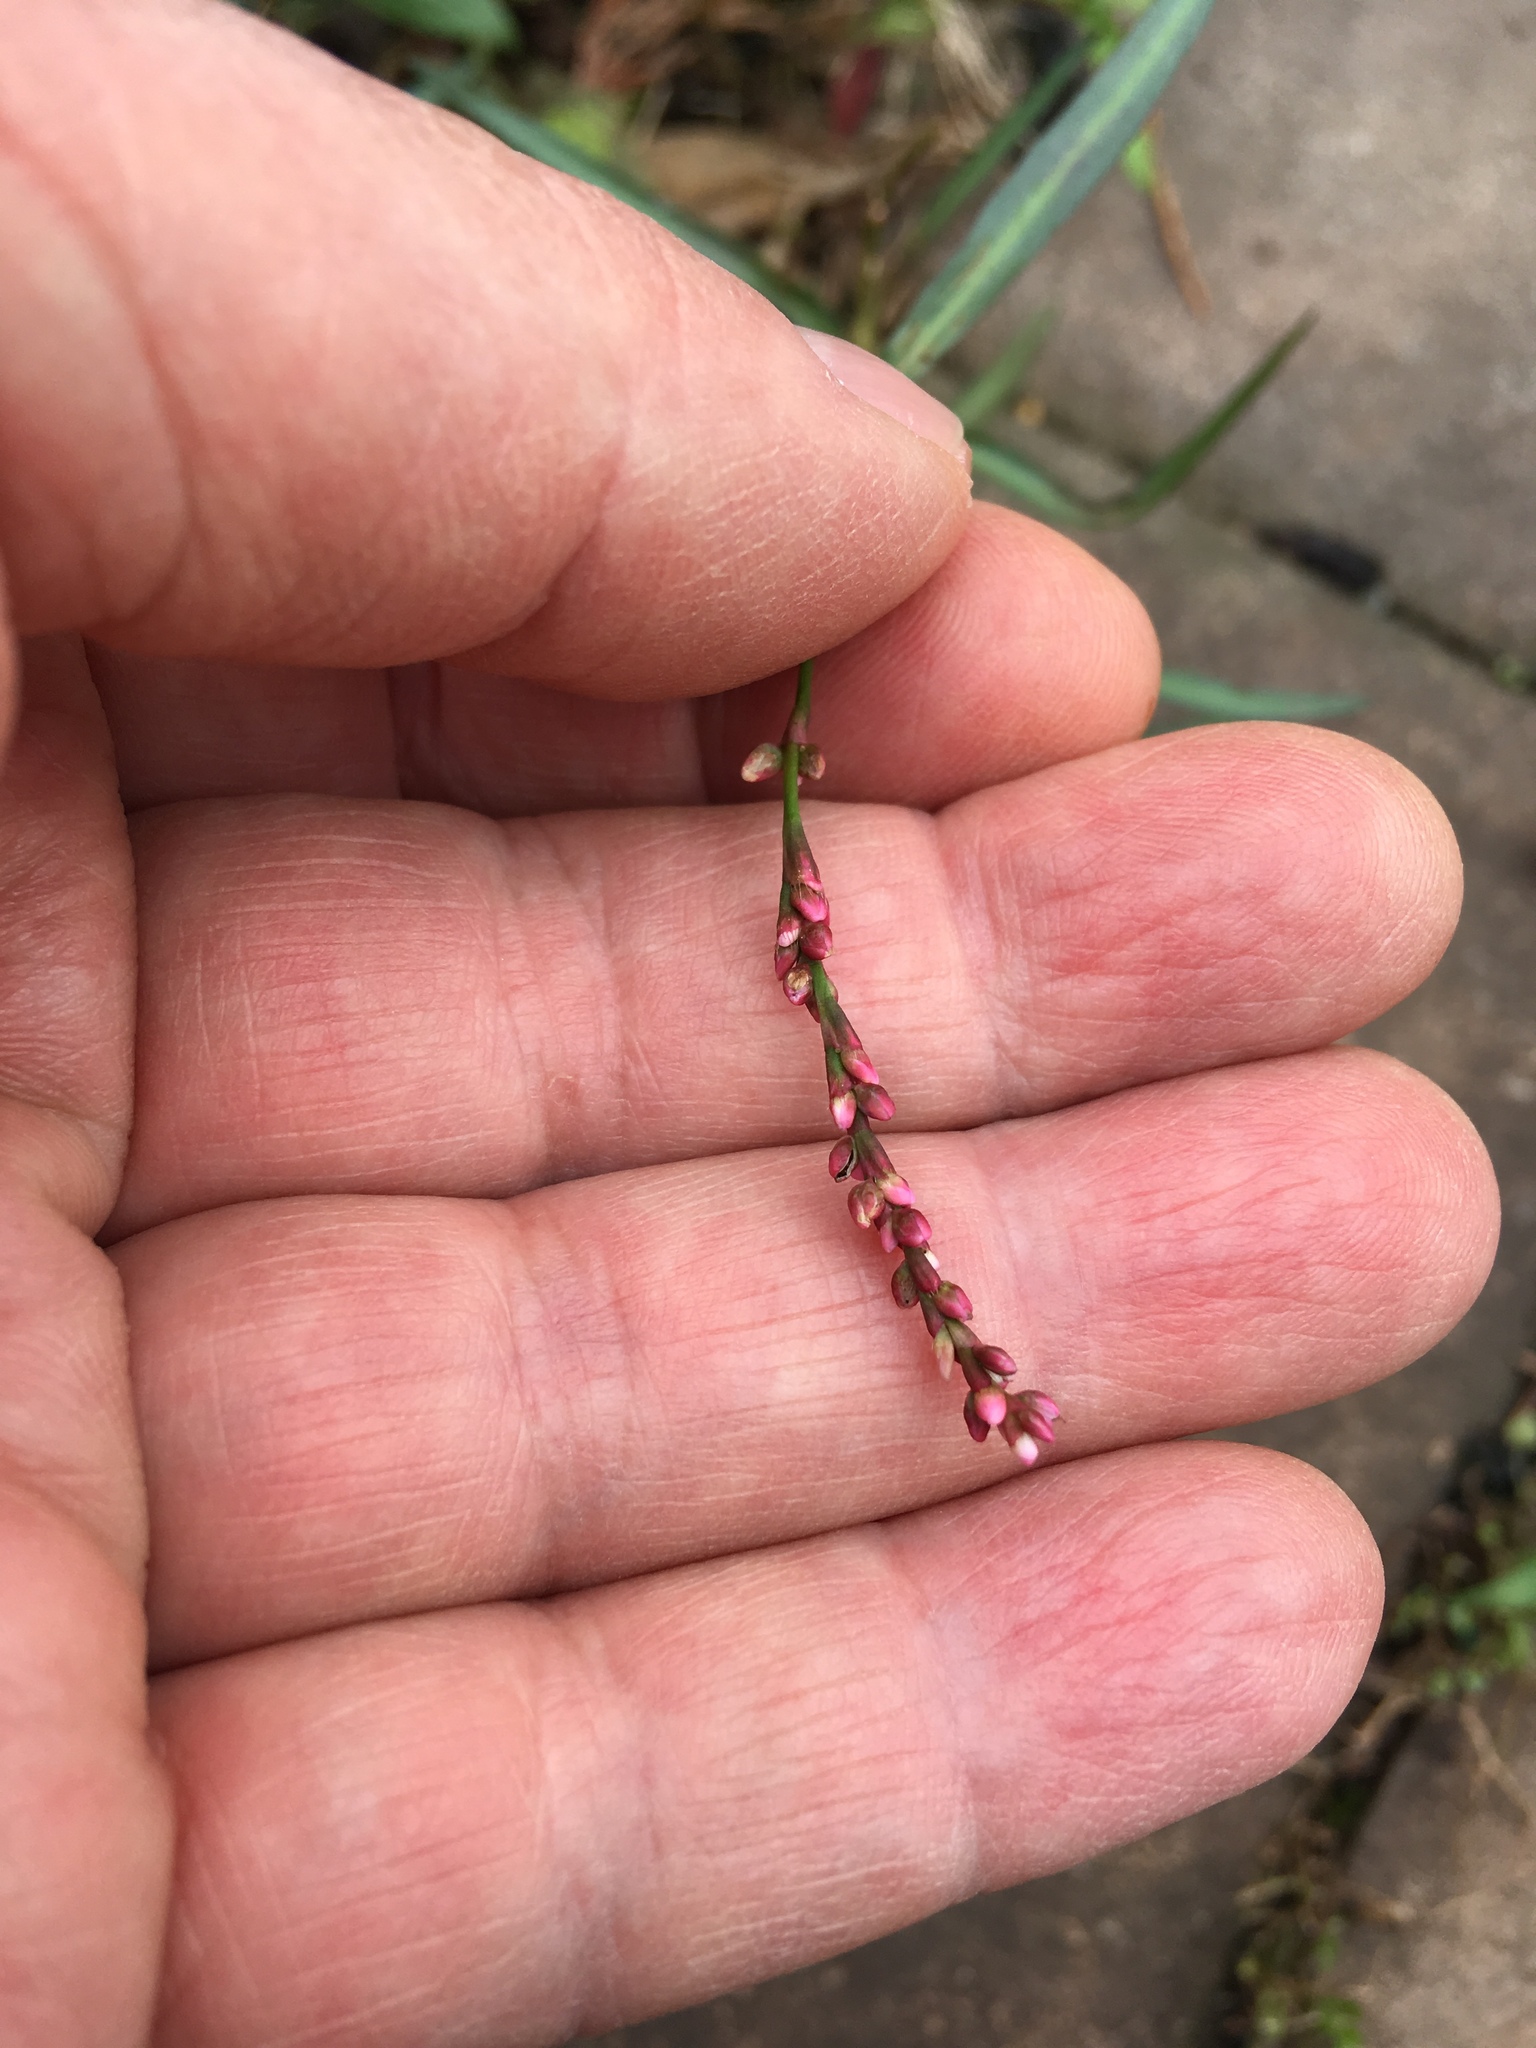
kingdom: Plantae
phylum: Tracheophyta
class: Magnoliopsida
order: Caryophyllales
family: Polygonaceae
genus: Persicaria
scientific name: Persicaria minor
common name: Small water-pepper
